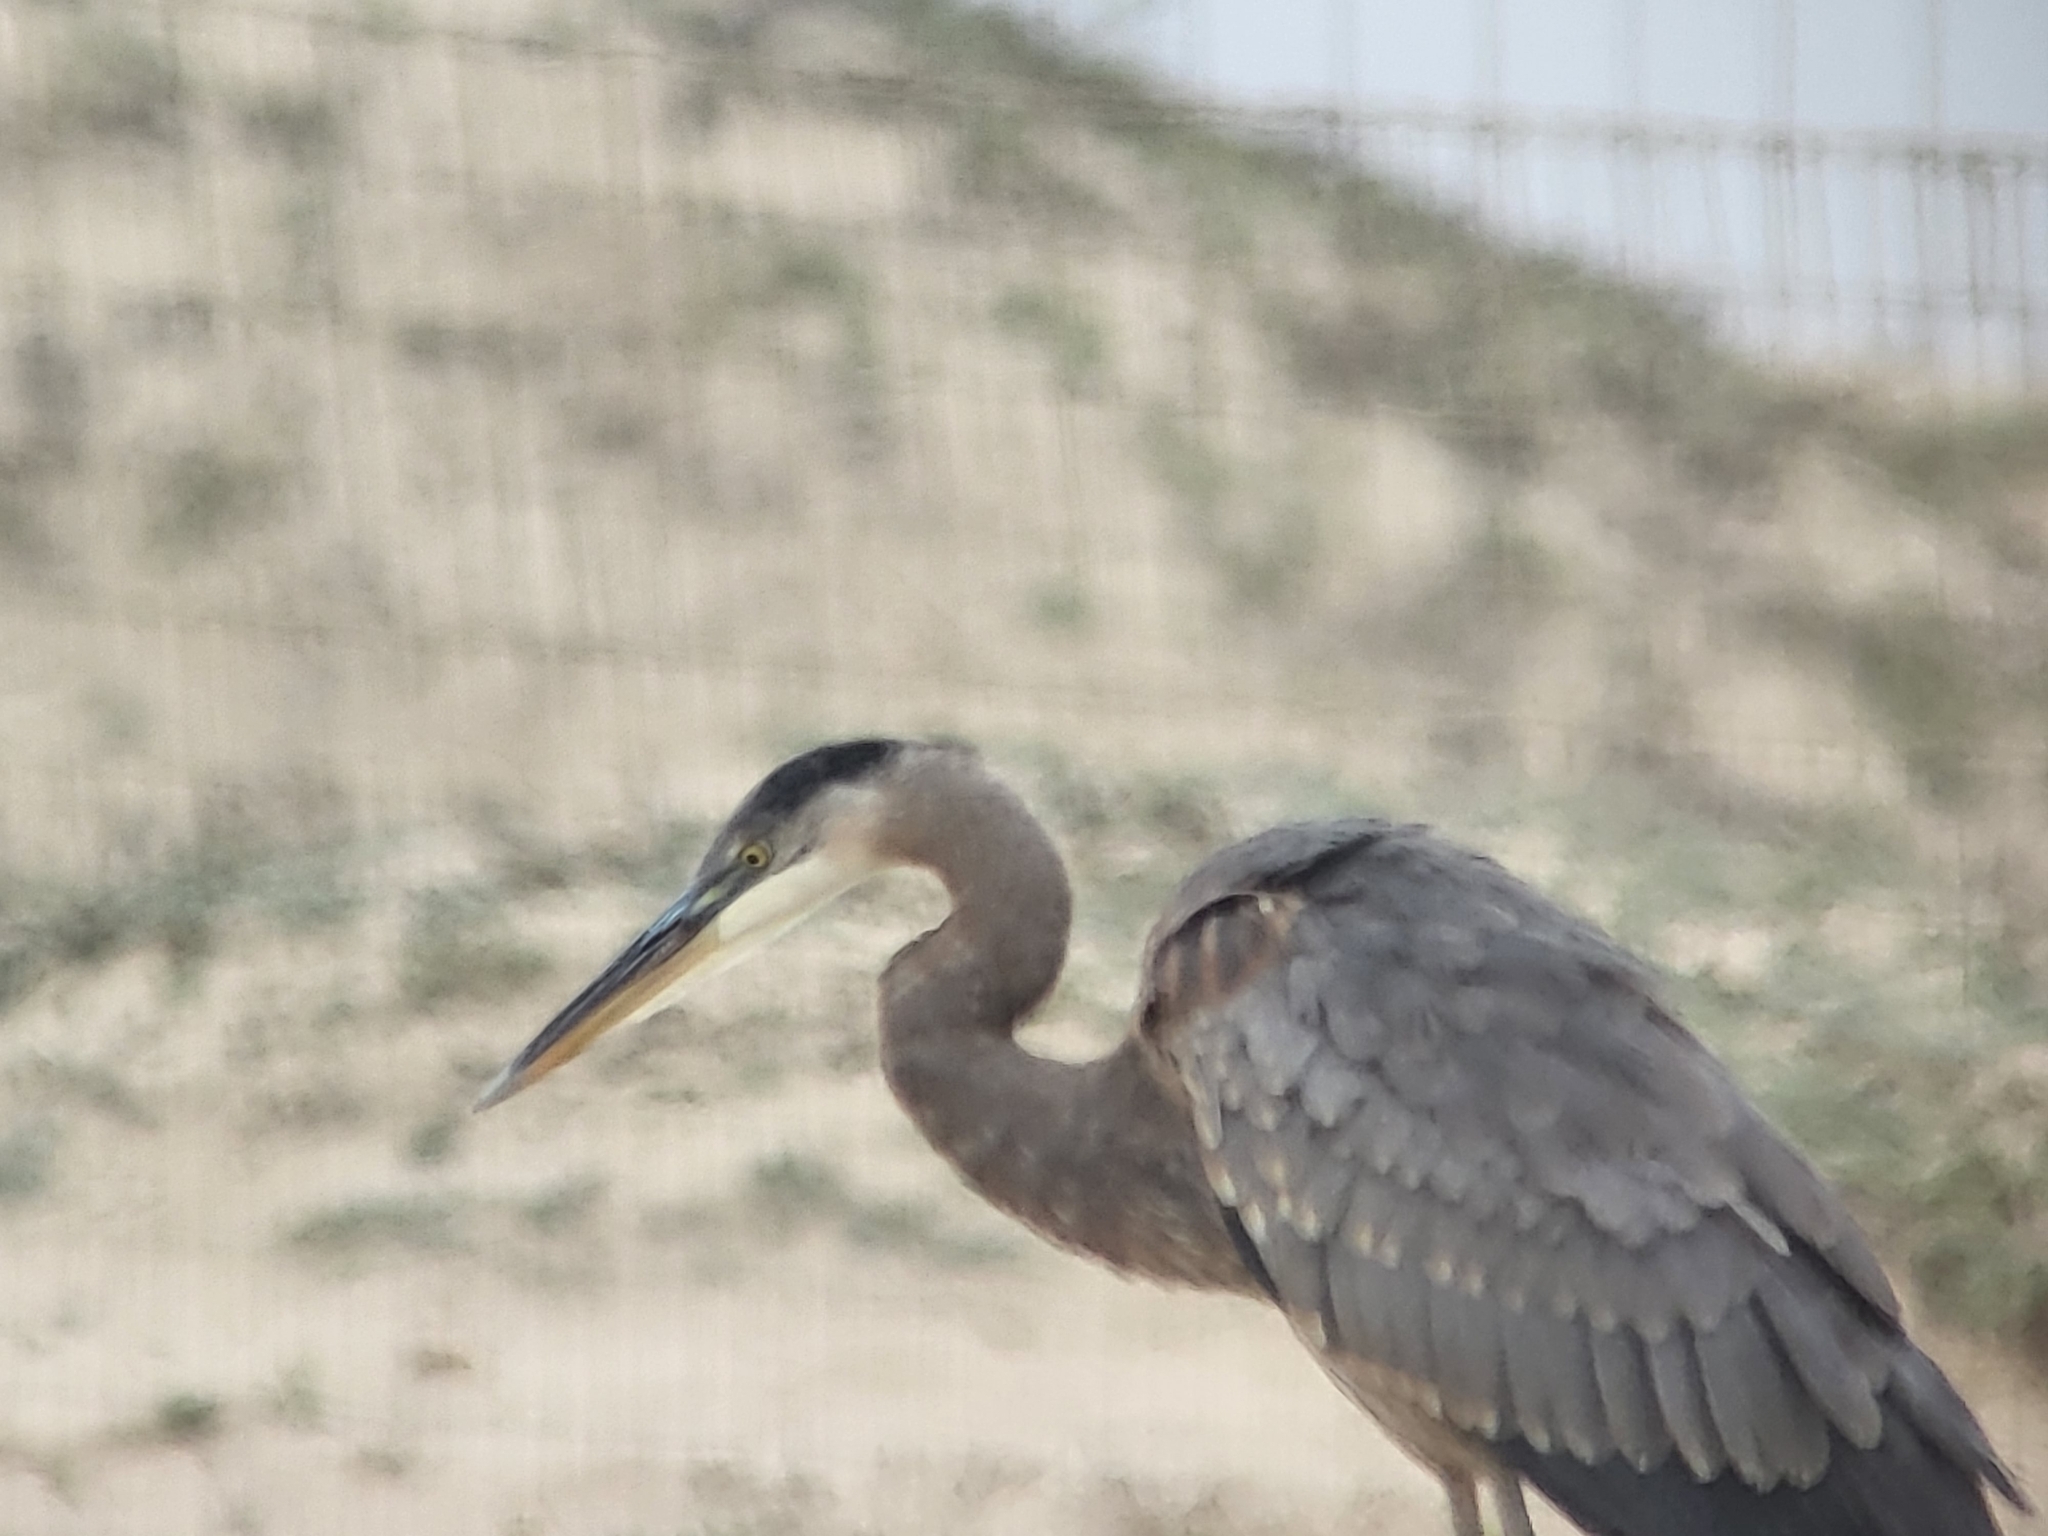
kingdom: Animalia
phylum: Chordata
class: Aves
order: Pelecaniformes
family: Ardeidae
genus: Ardea
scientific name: Ardea herodias
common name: Great blue heron
